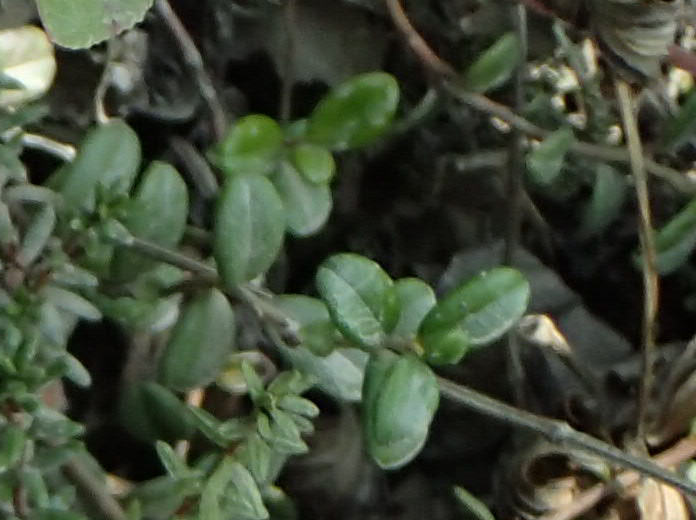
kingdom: Plantae
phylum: Tracheophyta
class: Magnoliopsida
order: Ericales
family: Ericaceae
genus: Vaccinium
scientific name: Vaccinium vitis-idaea
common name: Cowberry
